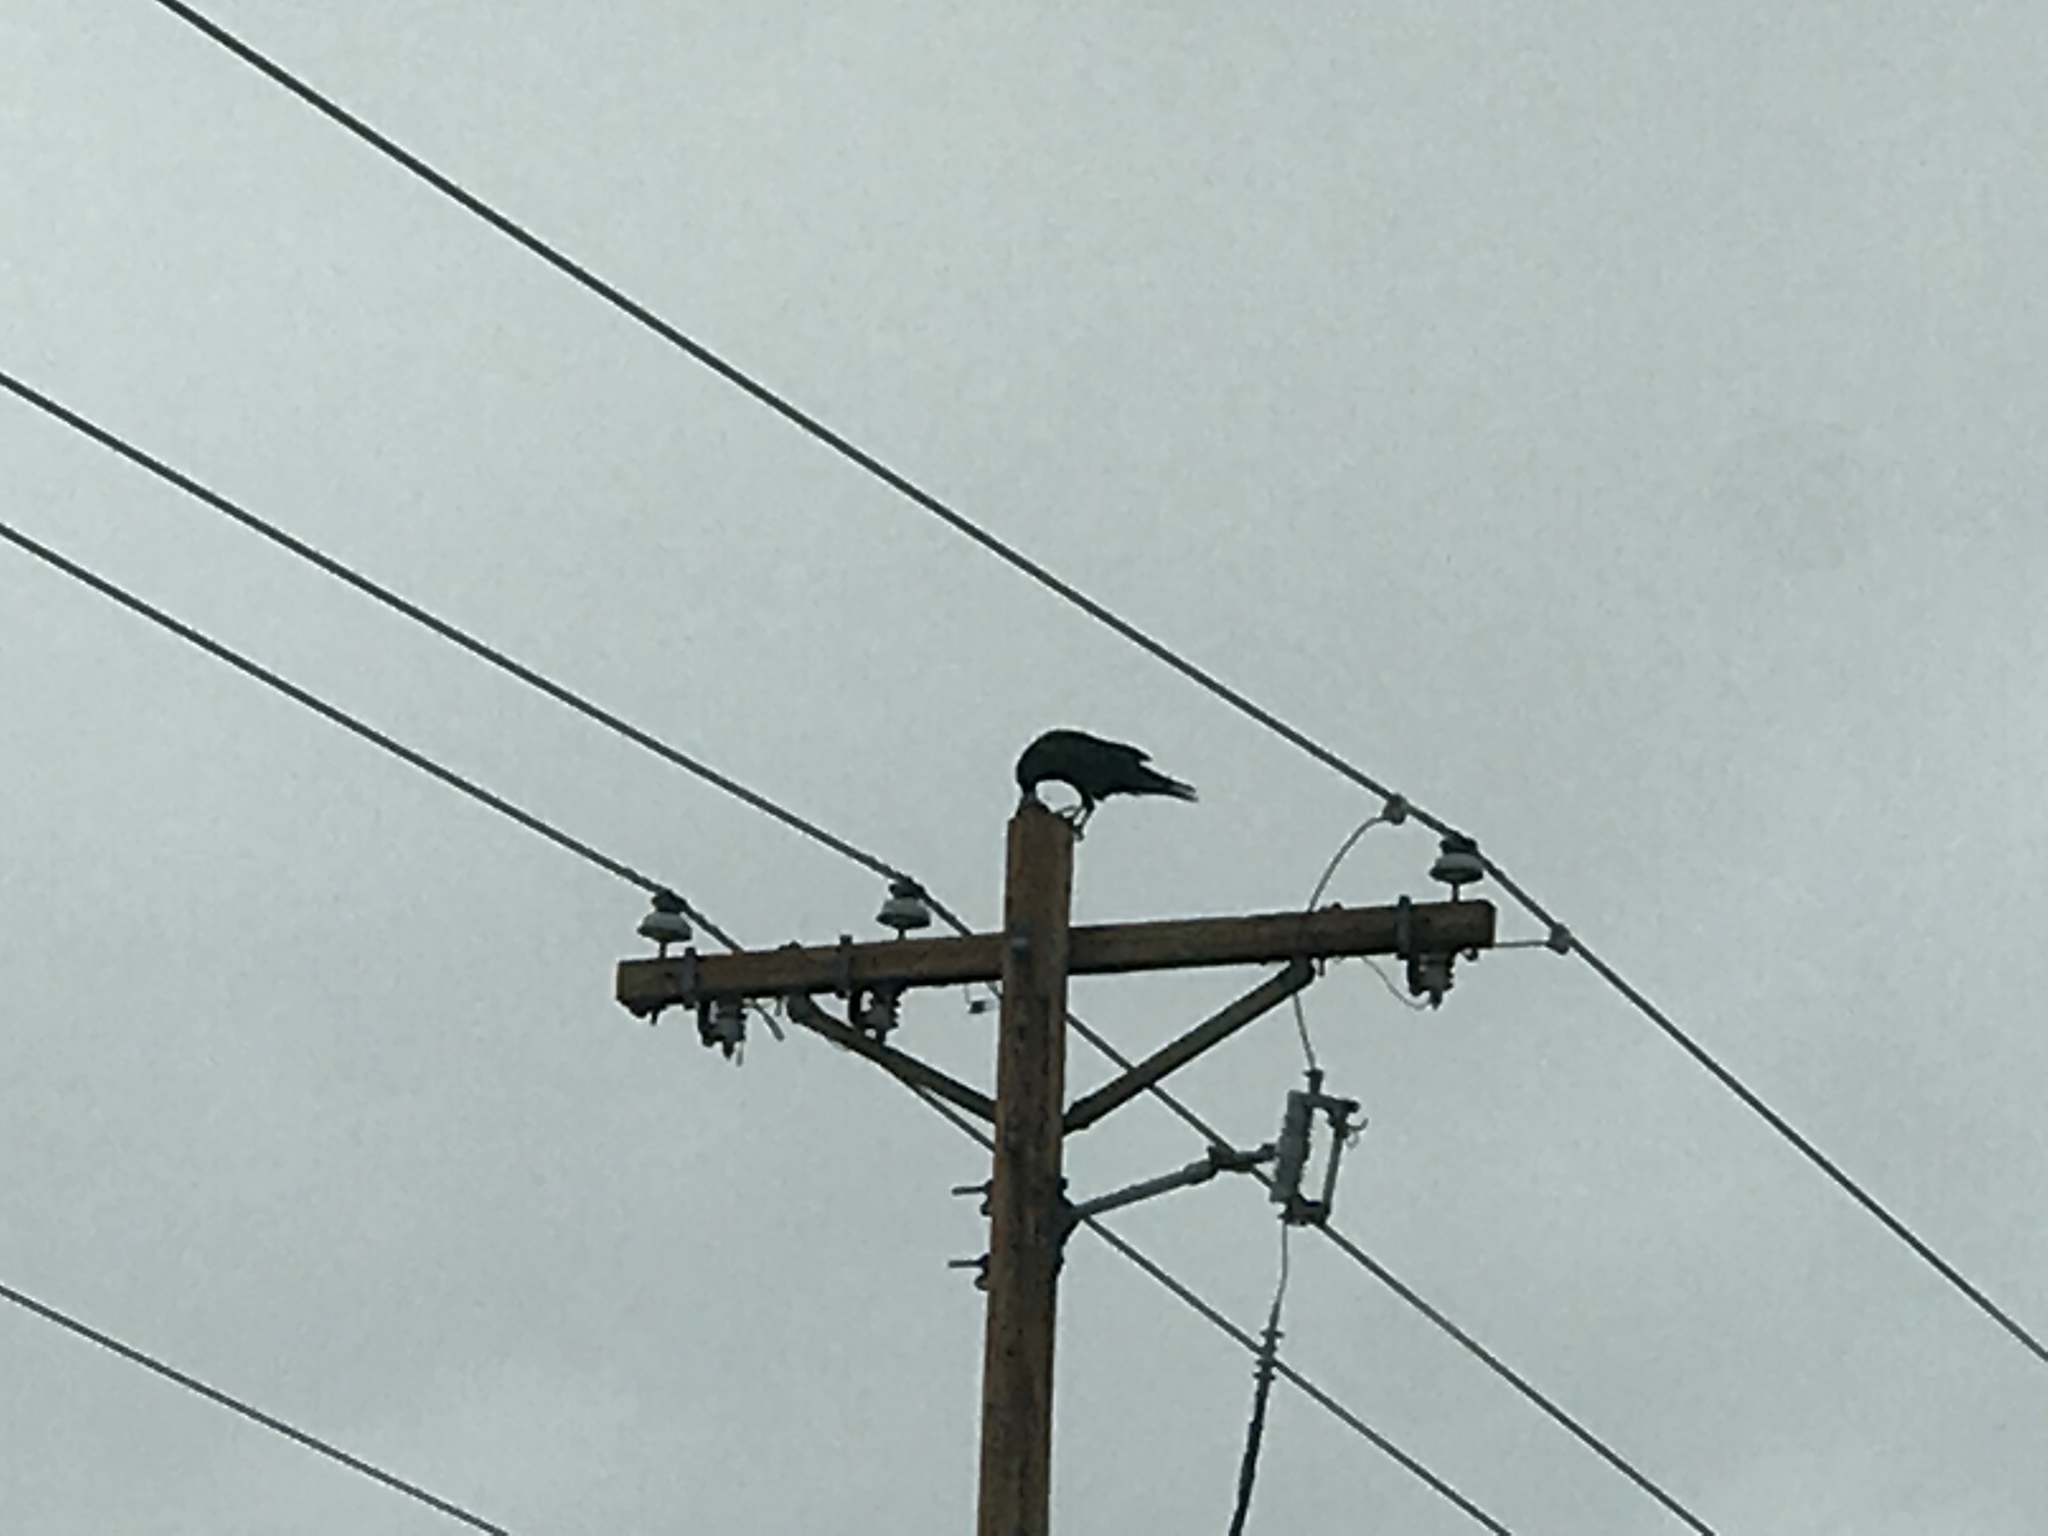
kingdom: Animalia
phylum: Chordata
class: Aves
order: Passeriformes
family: Corvidae
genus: Corvus
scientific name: Corvus corax
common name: Common raven
